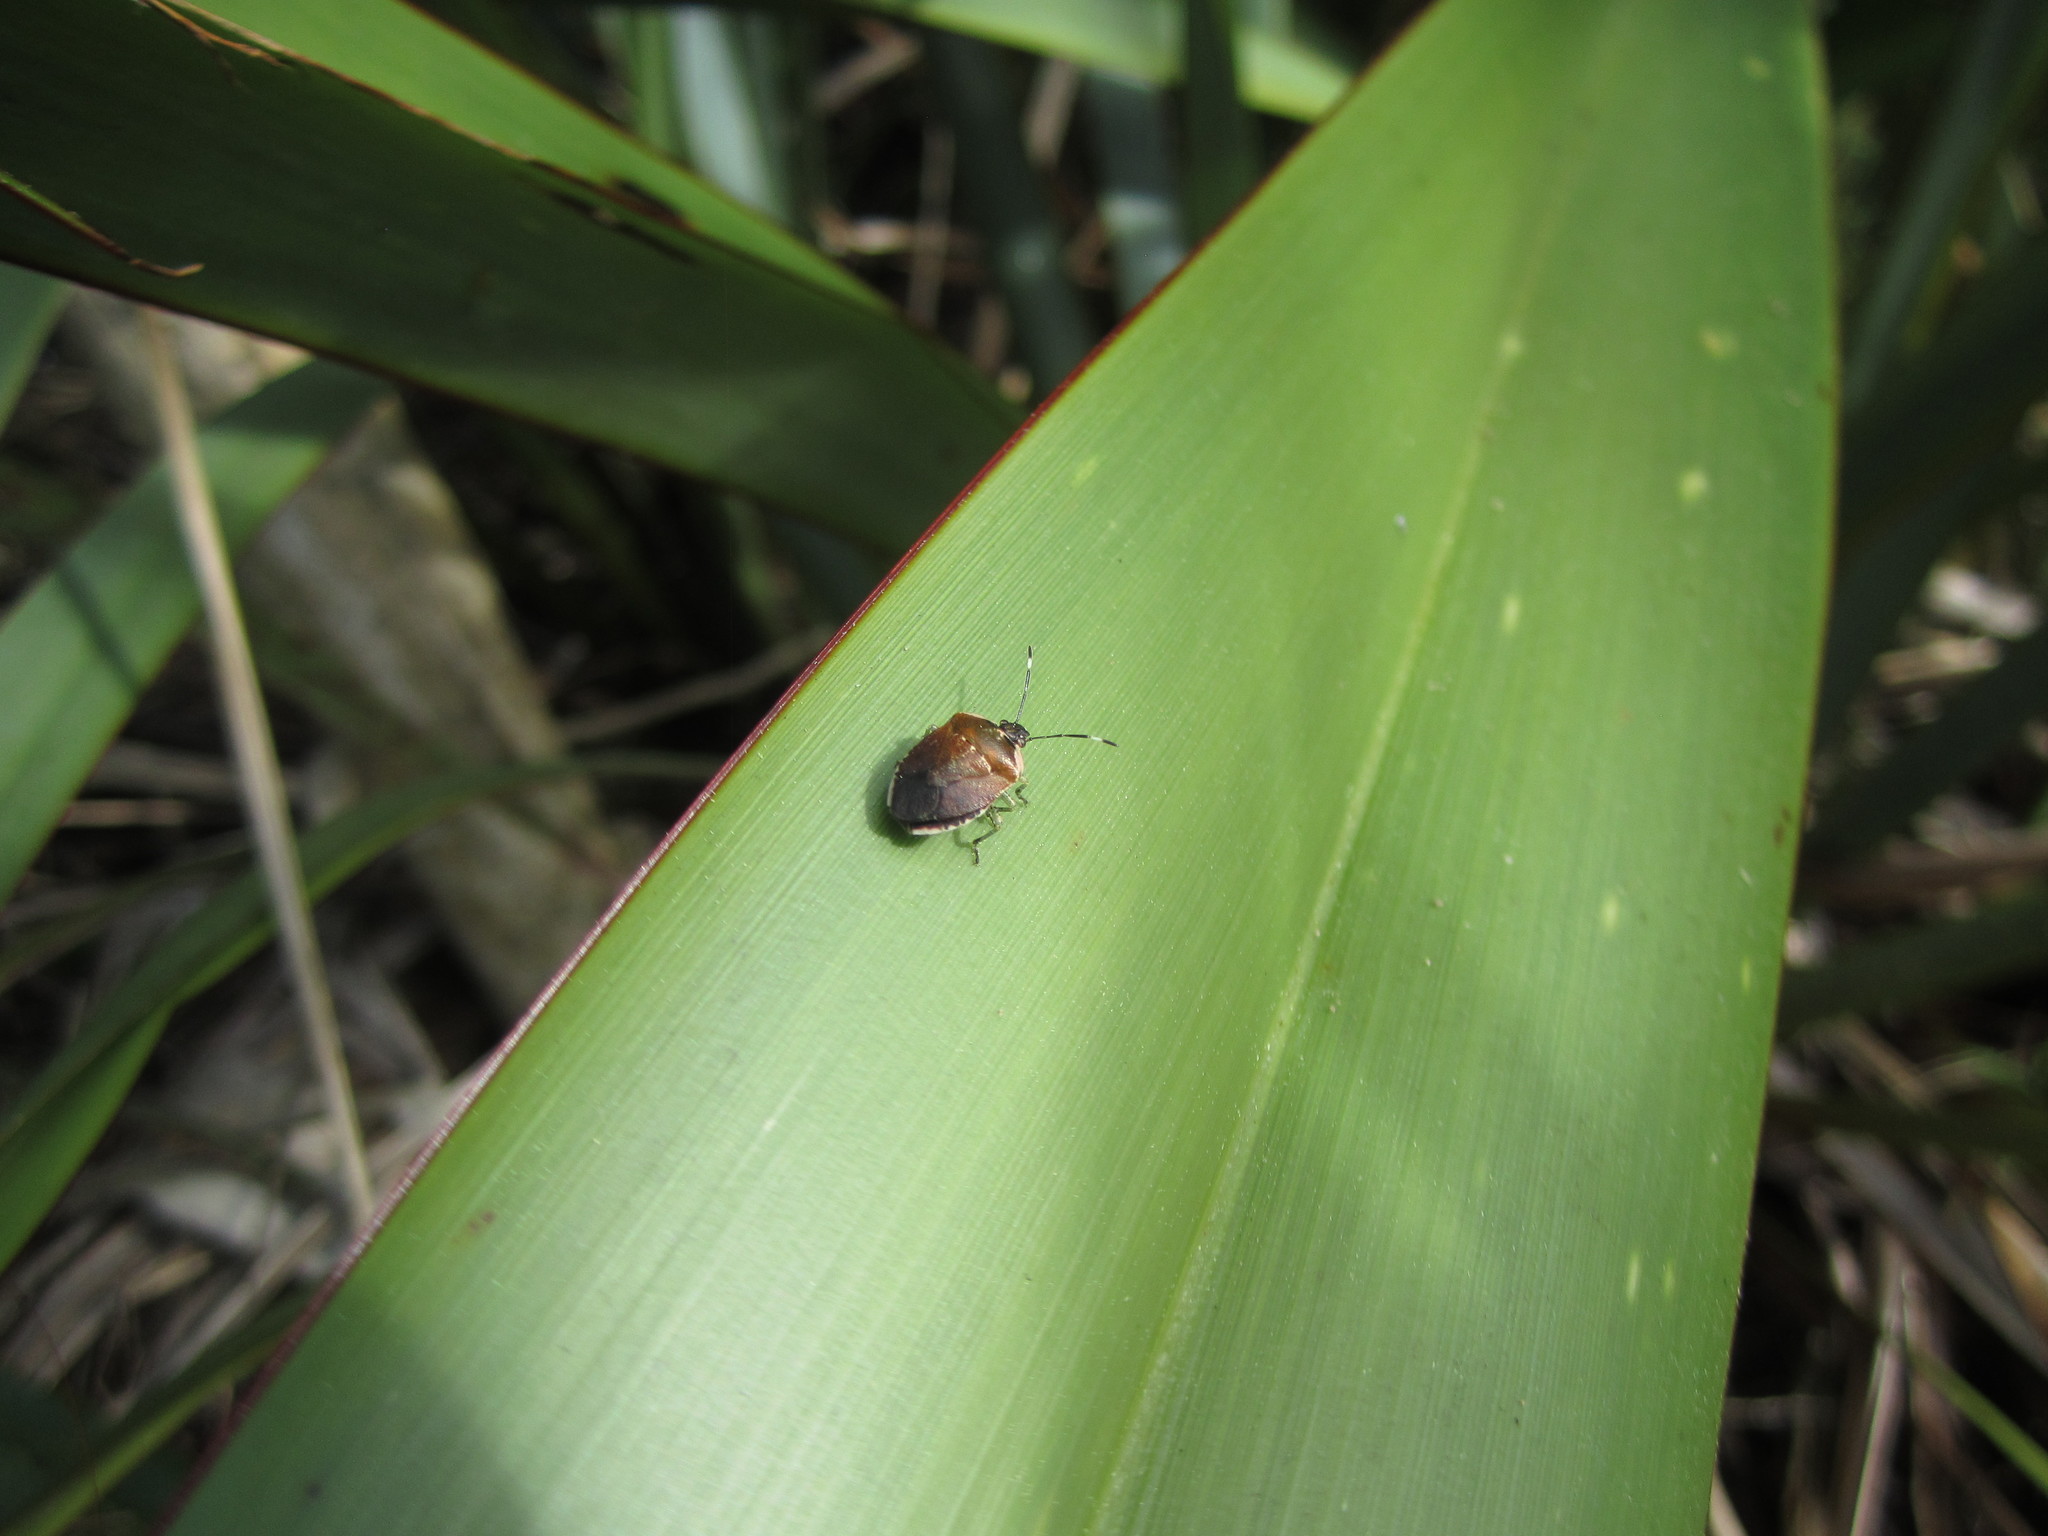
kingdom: Animalia
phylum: Arthropoda
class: Insecta
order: Hemiptera
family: Pentatomidae
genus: Monteithiella
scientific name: Monteithiella
